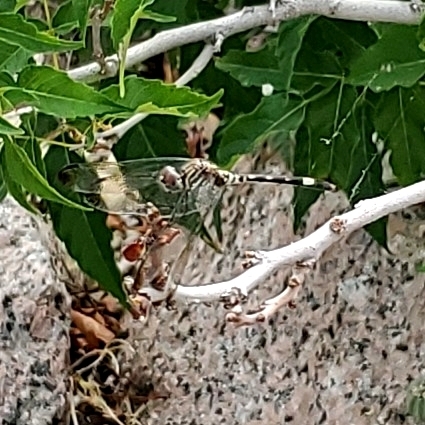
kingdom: Animalia
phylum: Arthropoda
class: Insecta
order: Odonata
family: Libellulidae
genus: Dythemis
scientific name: Dythemis velox
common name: Swift setwing
